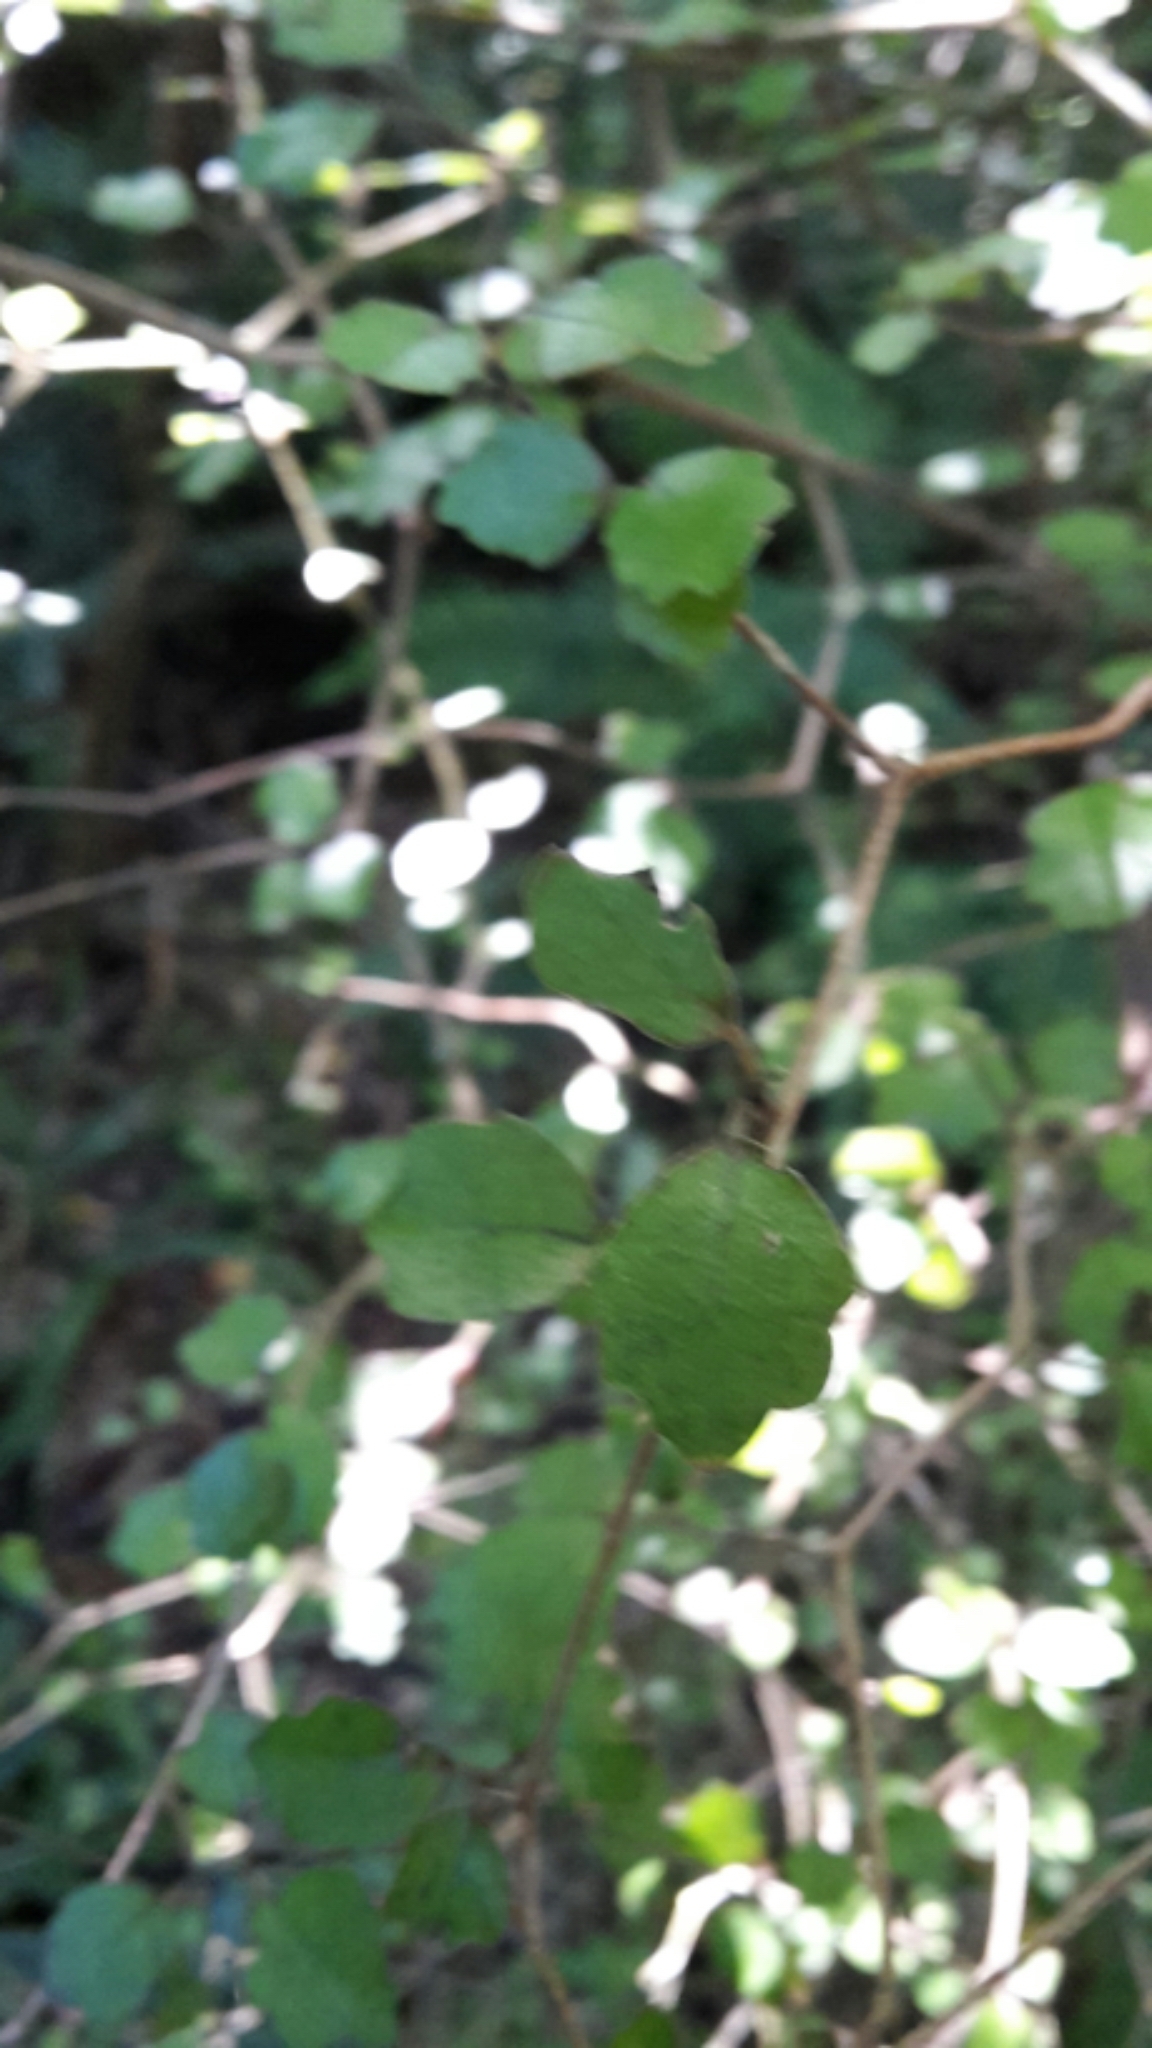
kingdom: Plantae
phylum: Tracheophyta
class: Magnoliopsida
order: Apiales
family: Pennantiaceae
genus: Pennantia
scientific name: Pennantia corymbosa
